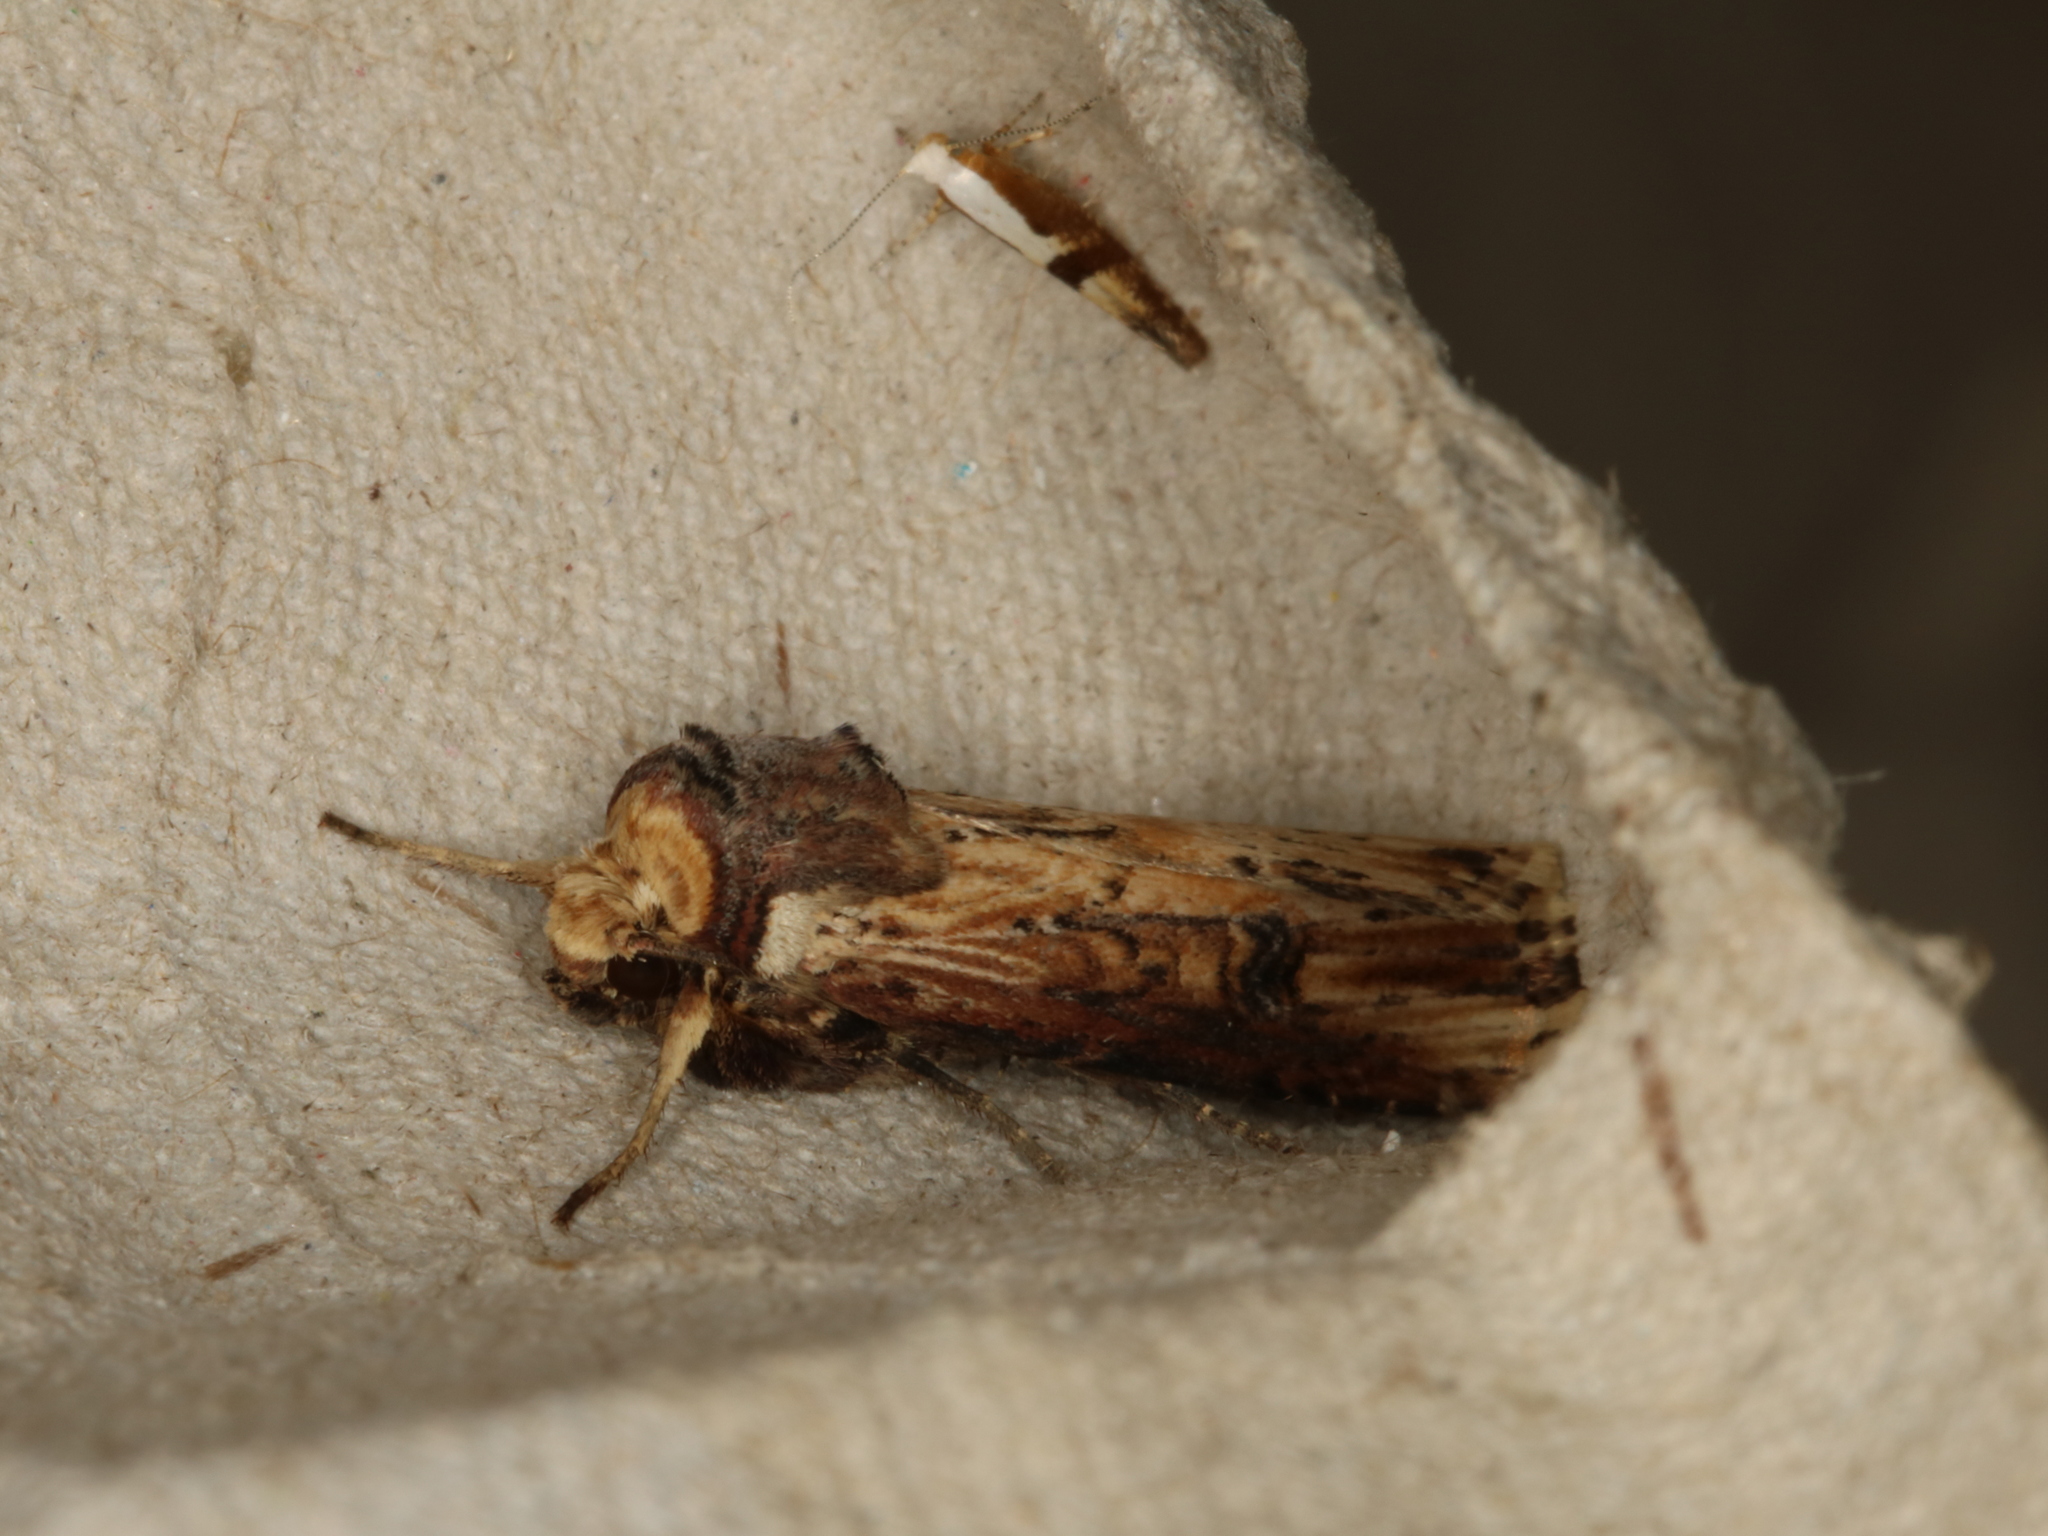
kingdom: Animalia
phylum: Arthropoda
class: Insecta
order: Lepidoptera
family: Noctuidae
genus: Axylia
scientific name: Axylia putris
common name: Flame
